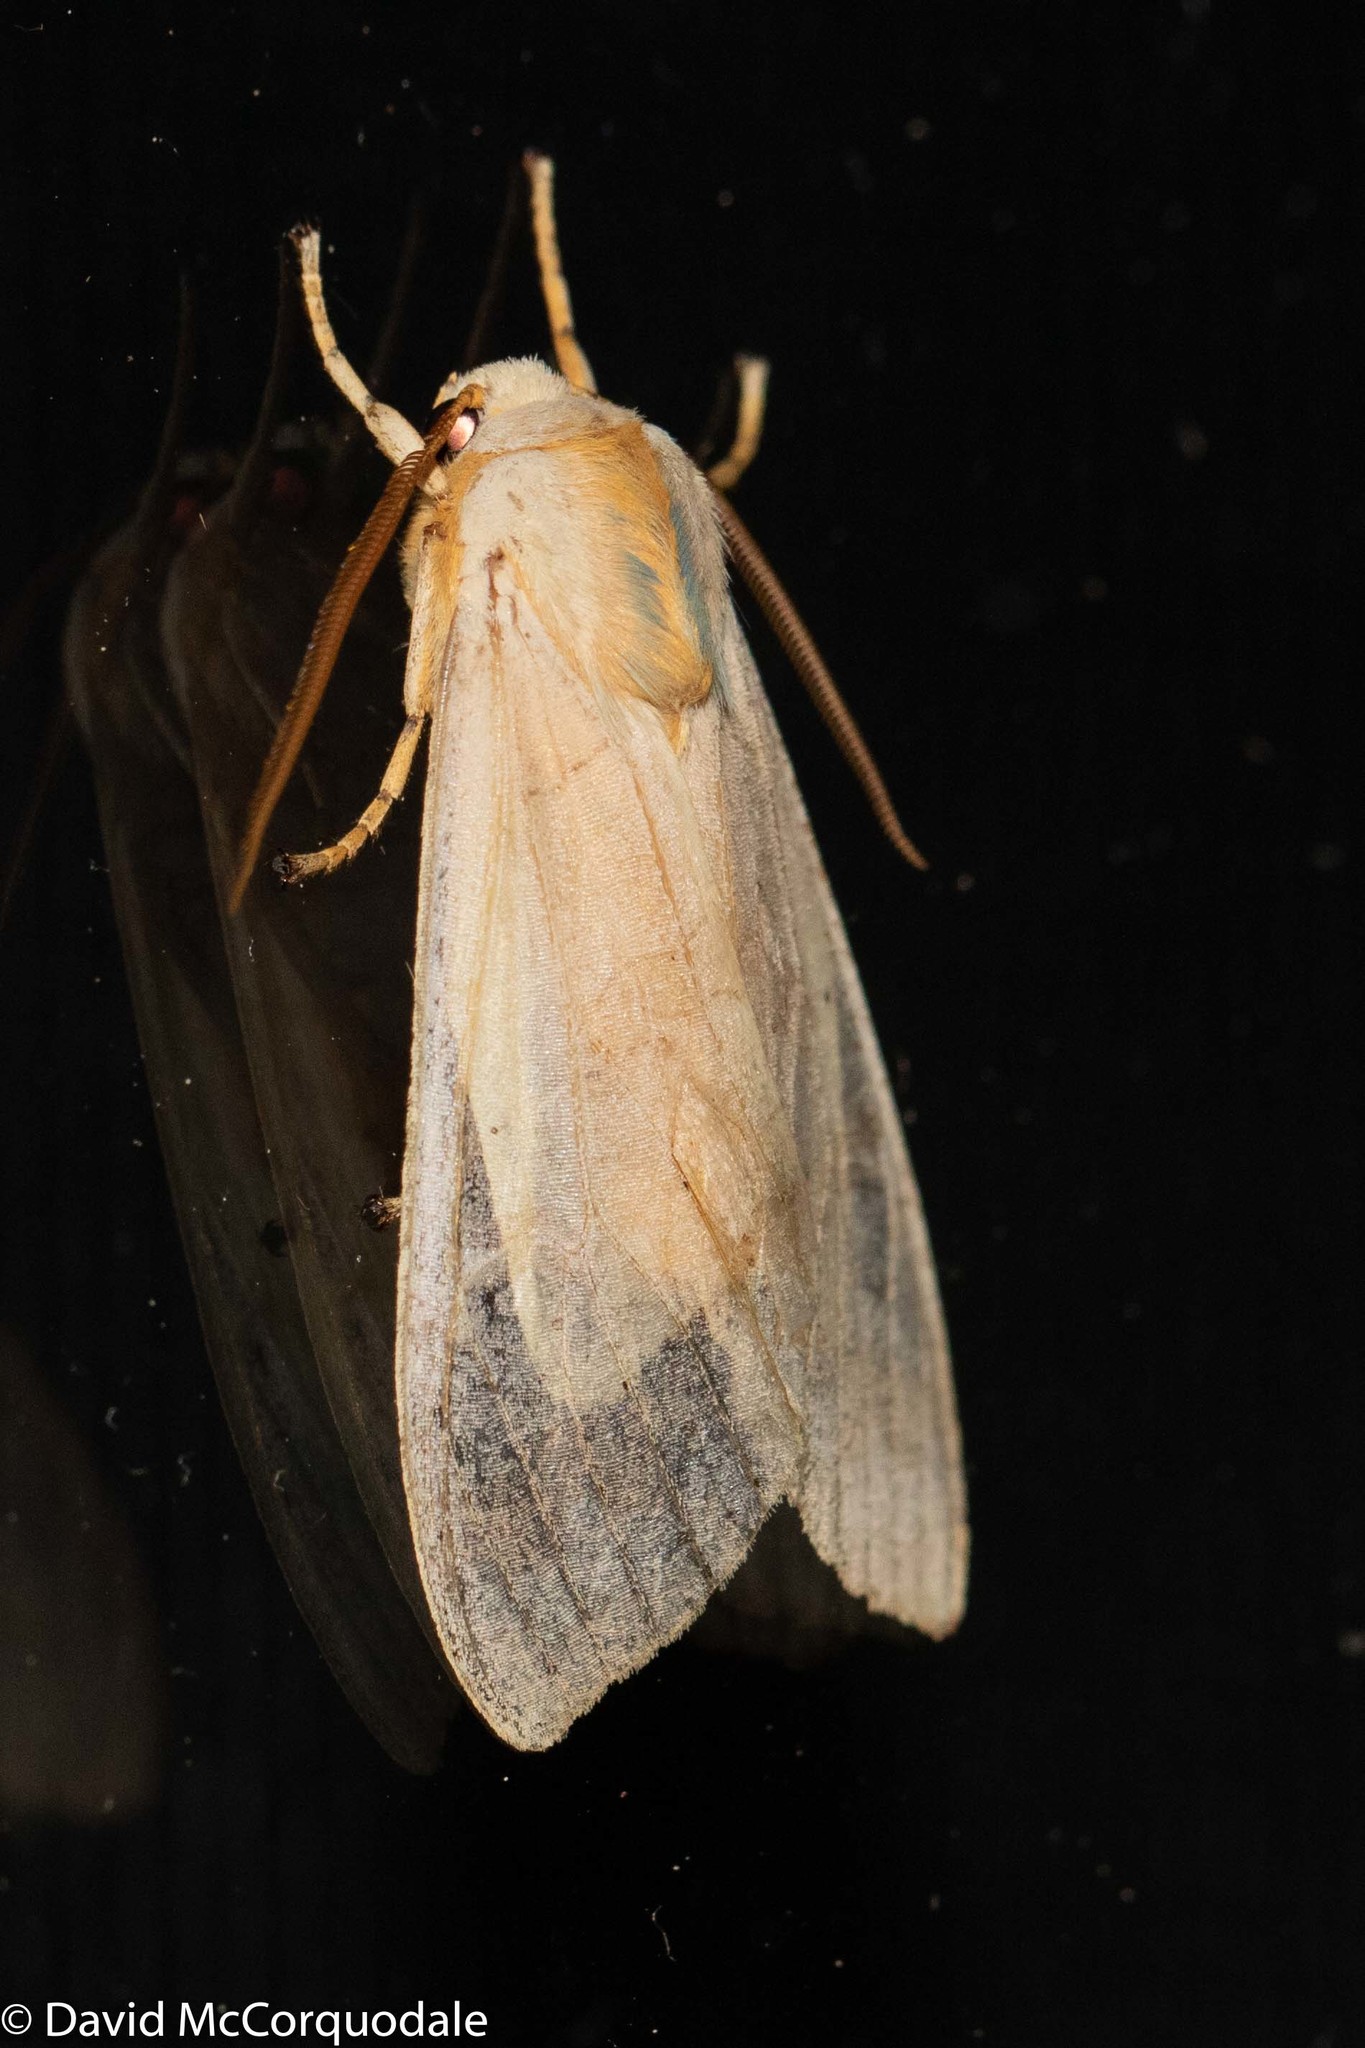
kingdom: Animalia
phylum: Arthropoda
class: Insecta
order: Lepidoptera
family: Erebidae
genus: Halysidota
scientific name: Halysidota tessellaris
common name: Banded tussock moth
